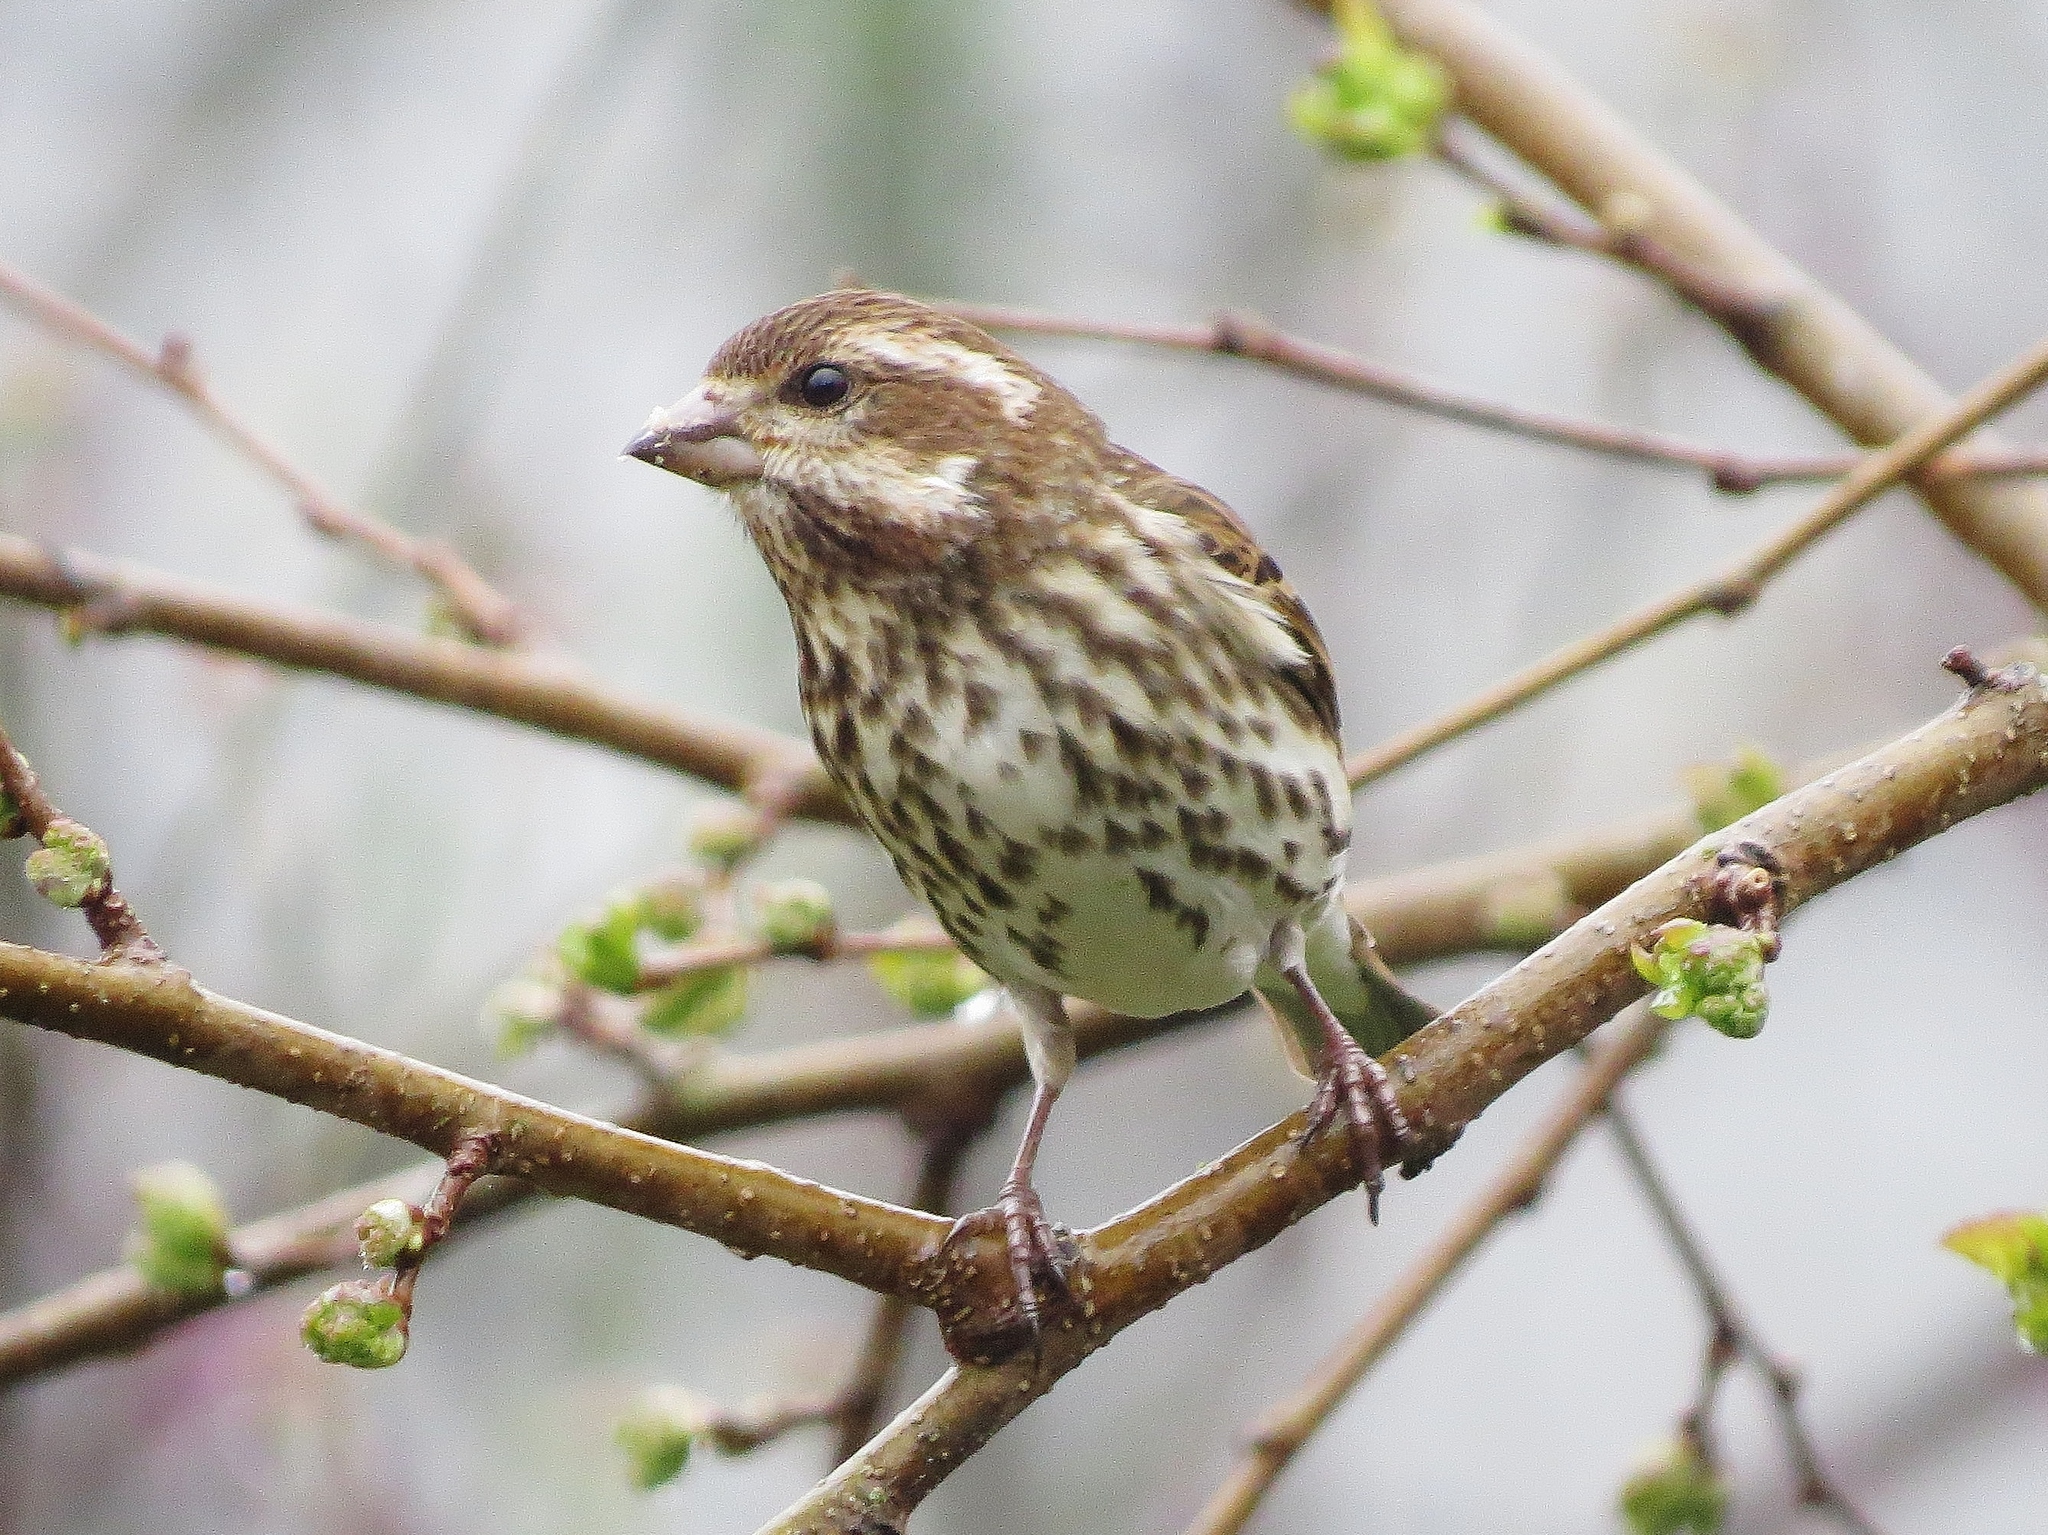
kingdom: Animalia
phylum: Chordata
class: Aves
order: Passeriformes
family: Fringillidae
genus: Haemorhous
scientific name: Haemorhous purpureus
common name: Purple finch
